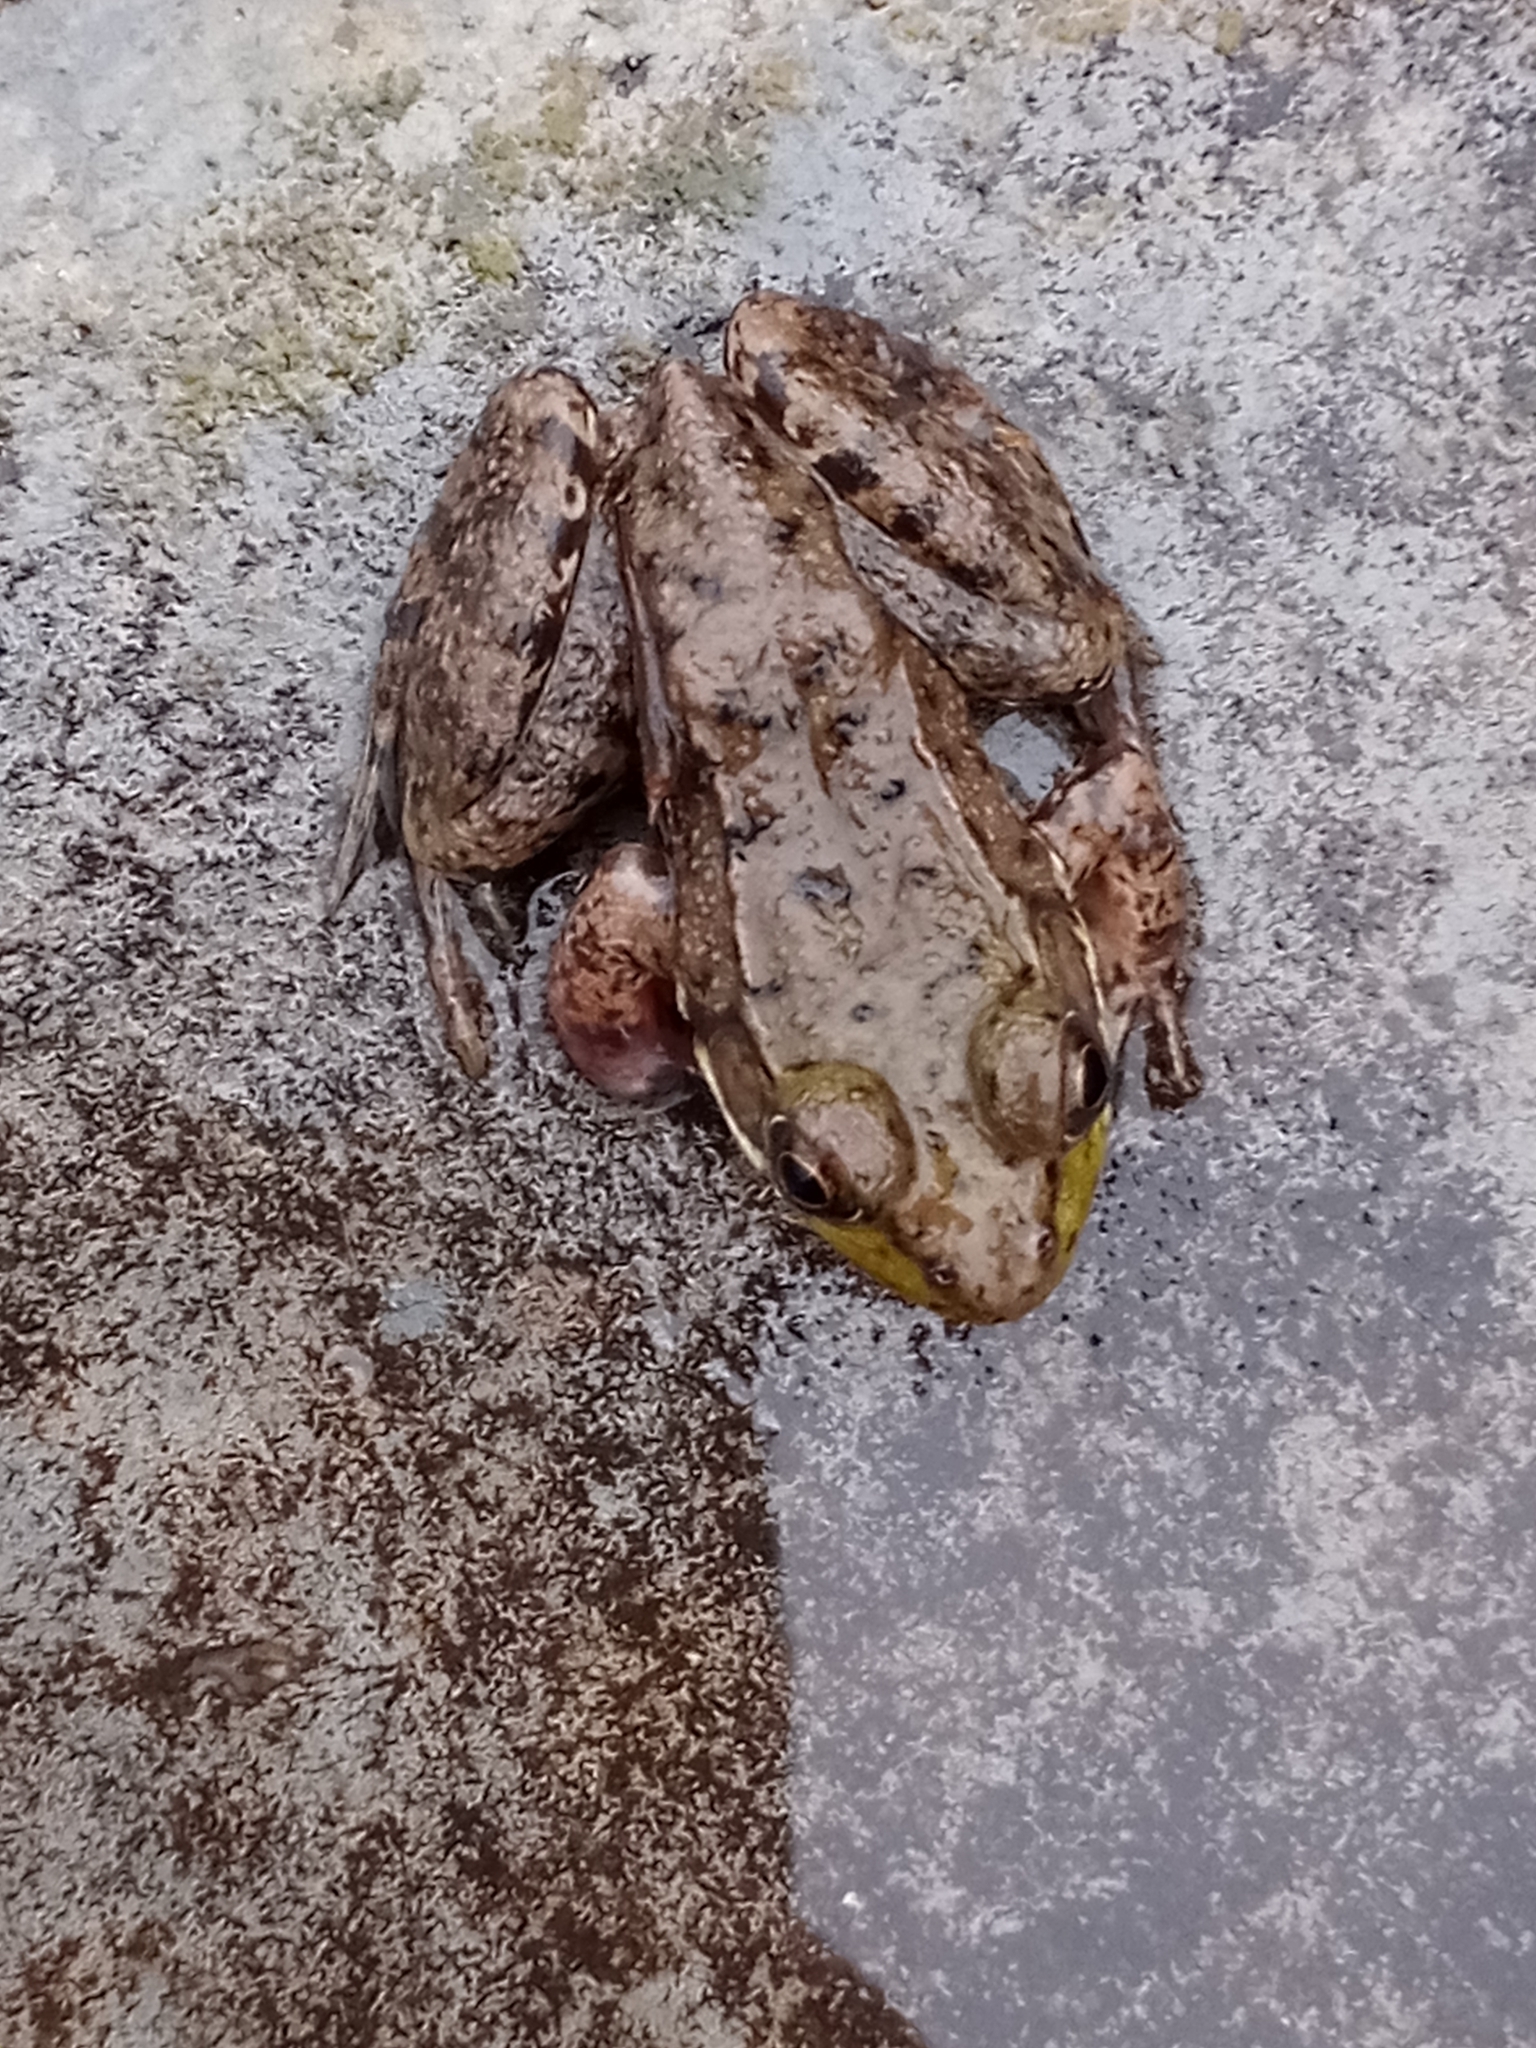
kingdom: Animalia
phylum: Chordata
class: Amphibia
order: Anura
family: Ranidae
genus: Lithobates
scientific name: Lithobates clamitans
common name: Green frog
